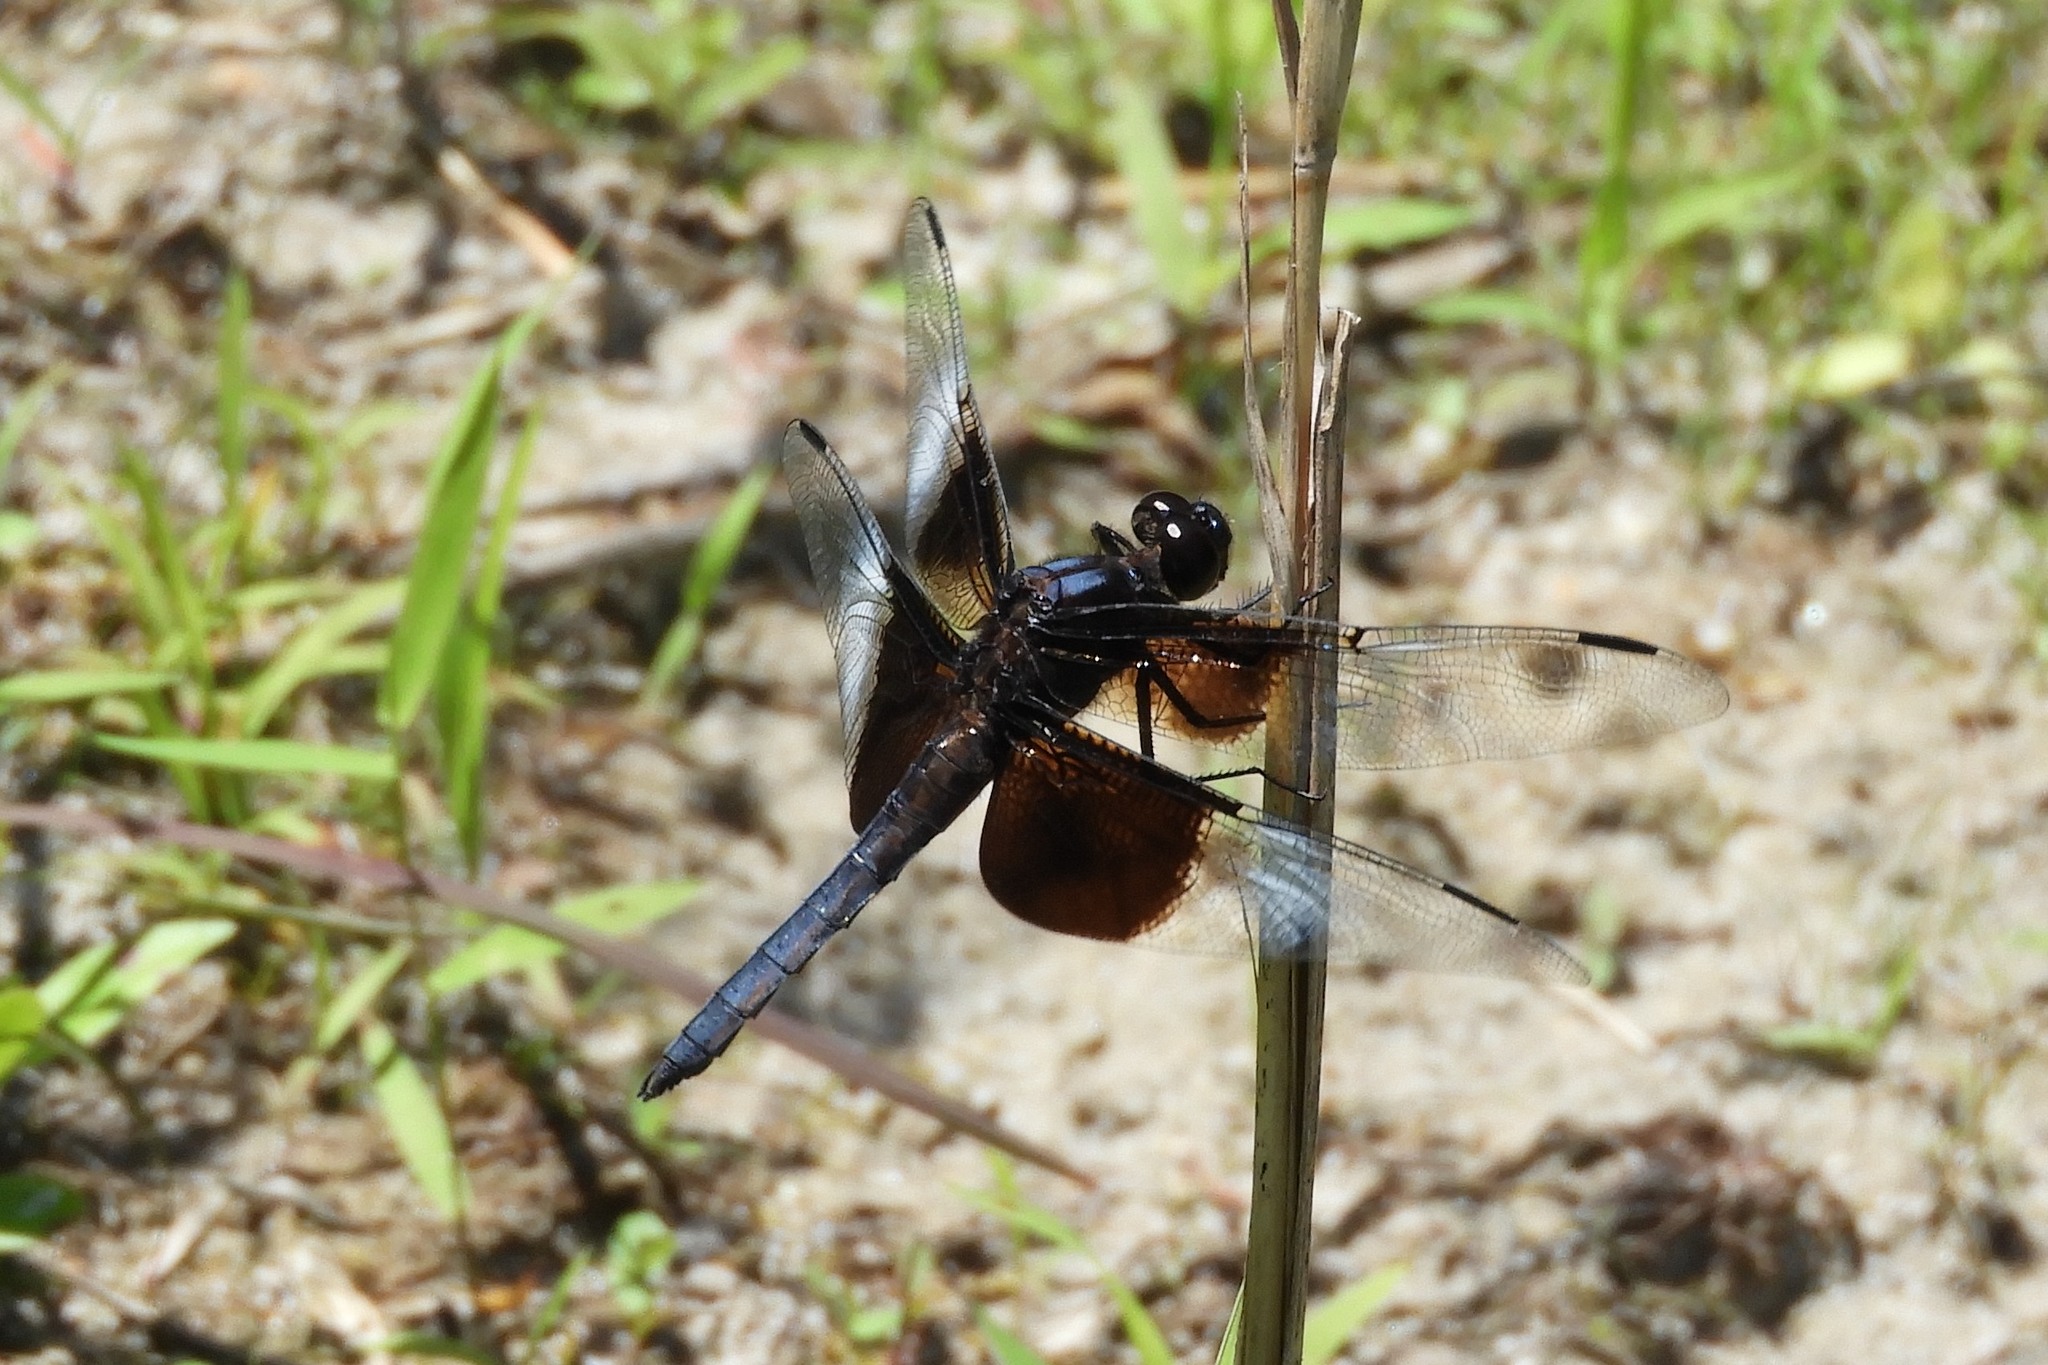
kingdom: Animalia
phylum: Arthropoda
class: Insecta
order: Odonata
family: Libellulidae
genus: Libellula
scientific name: Libellula luctuosa
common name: Widow skimmer
